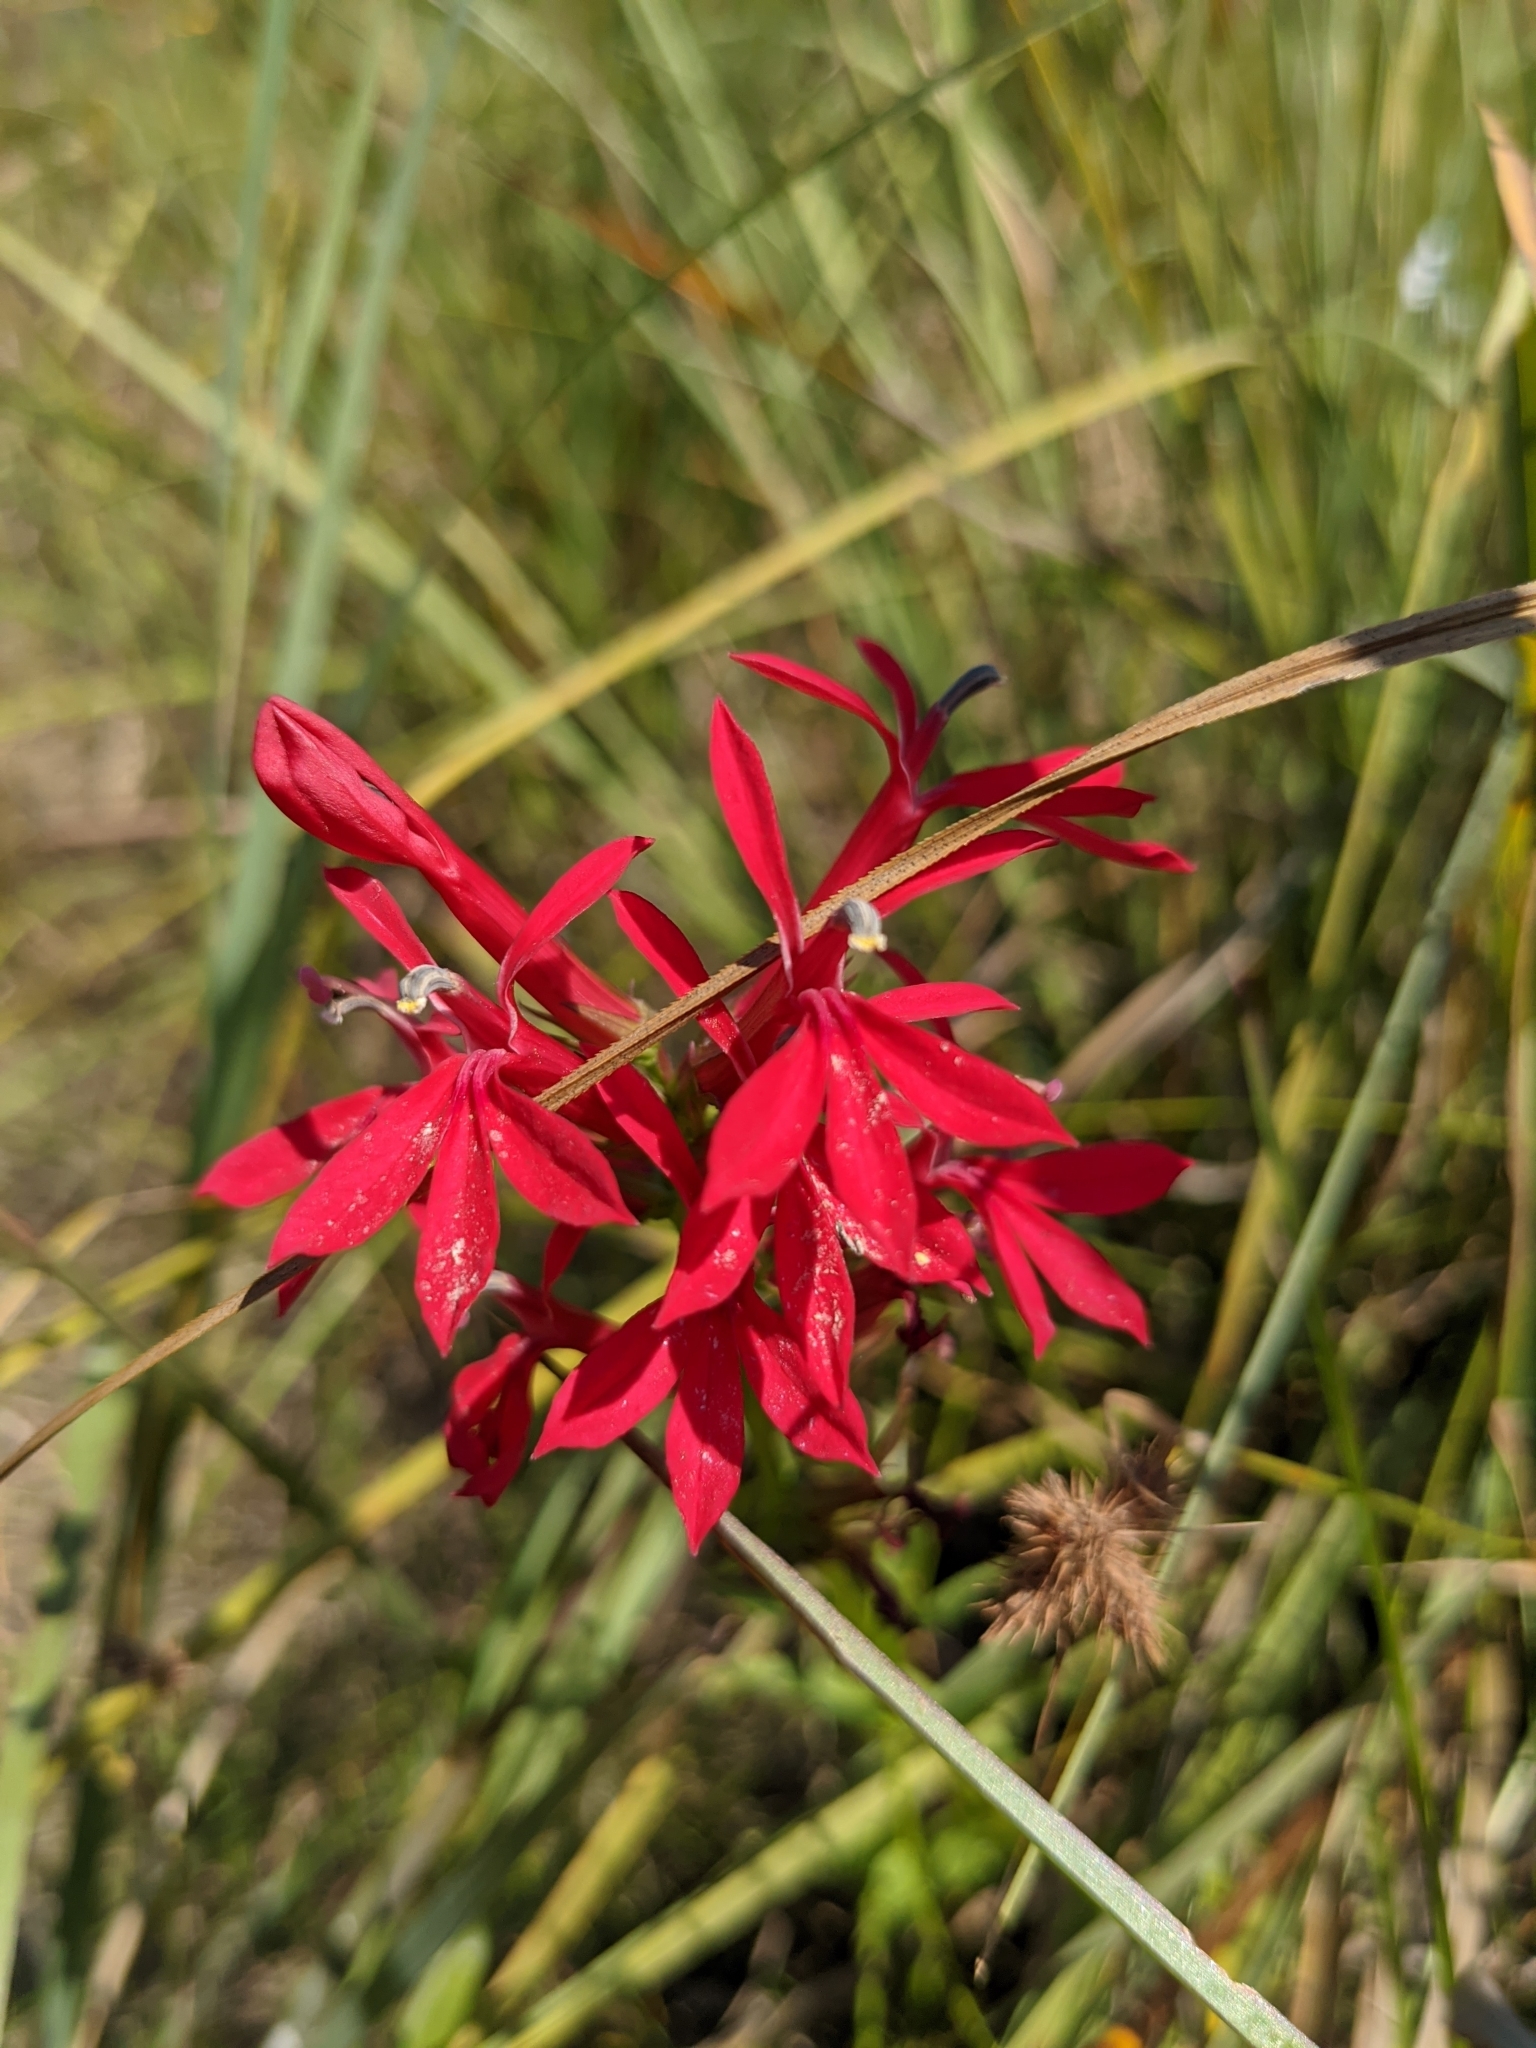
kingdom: Plantae
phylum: Tracheophyta
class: Magnoliopsida
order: Asterales
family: Campanulaceae
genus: Lobelia
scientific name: Lobelia cardinalis
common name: Cardinal flower
